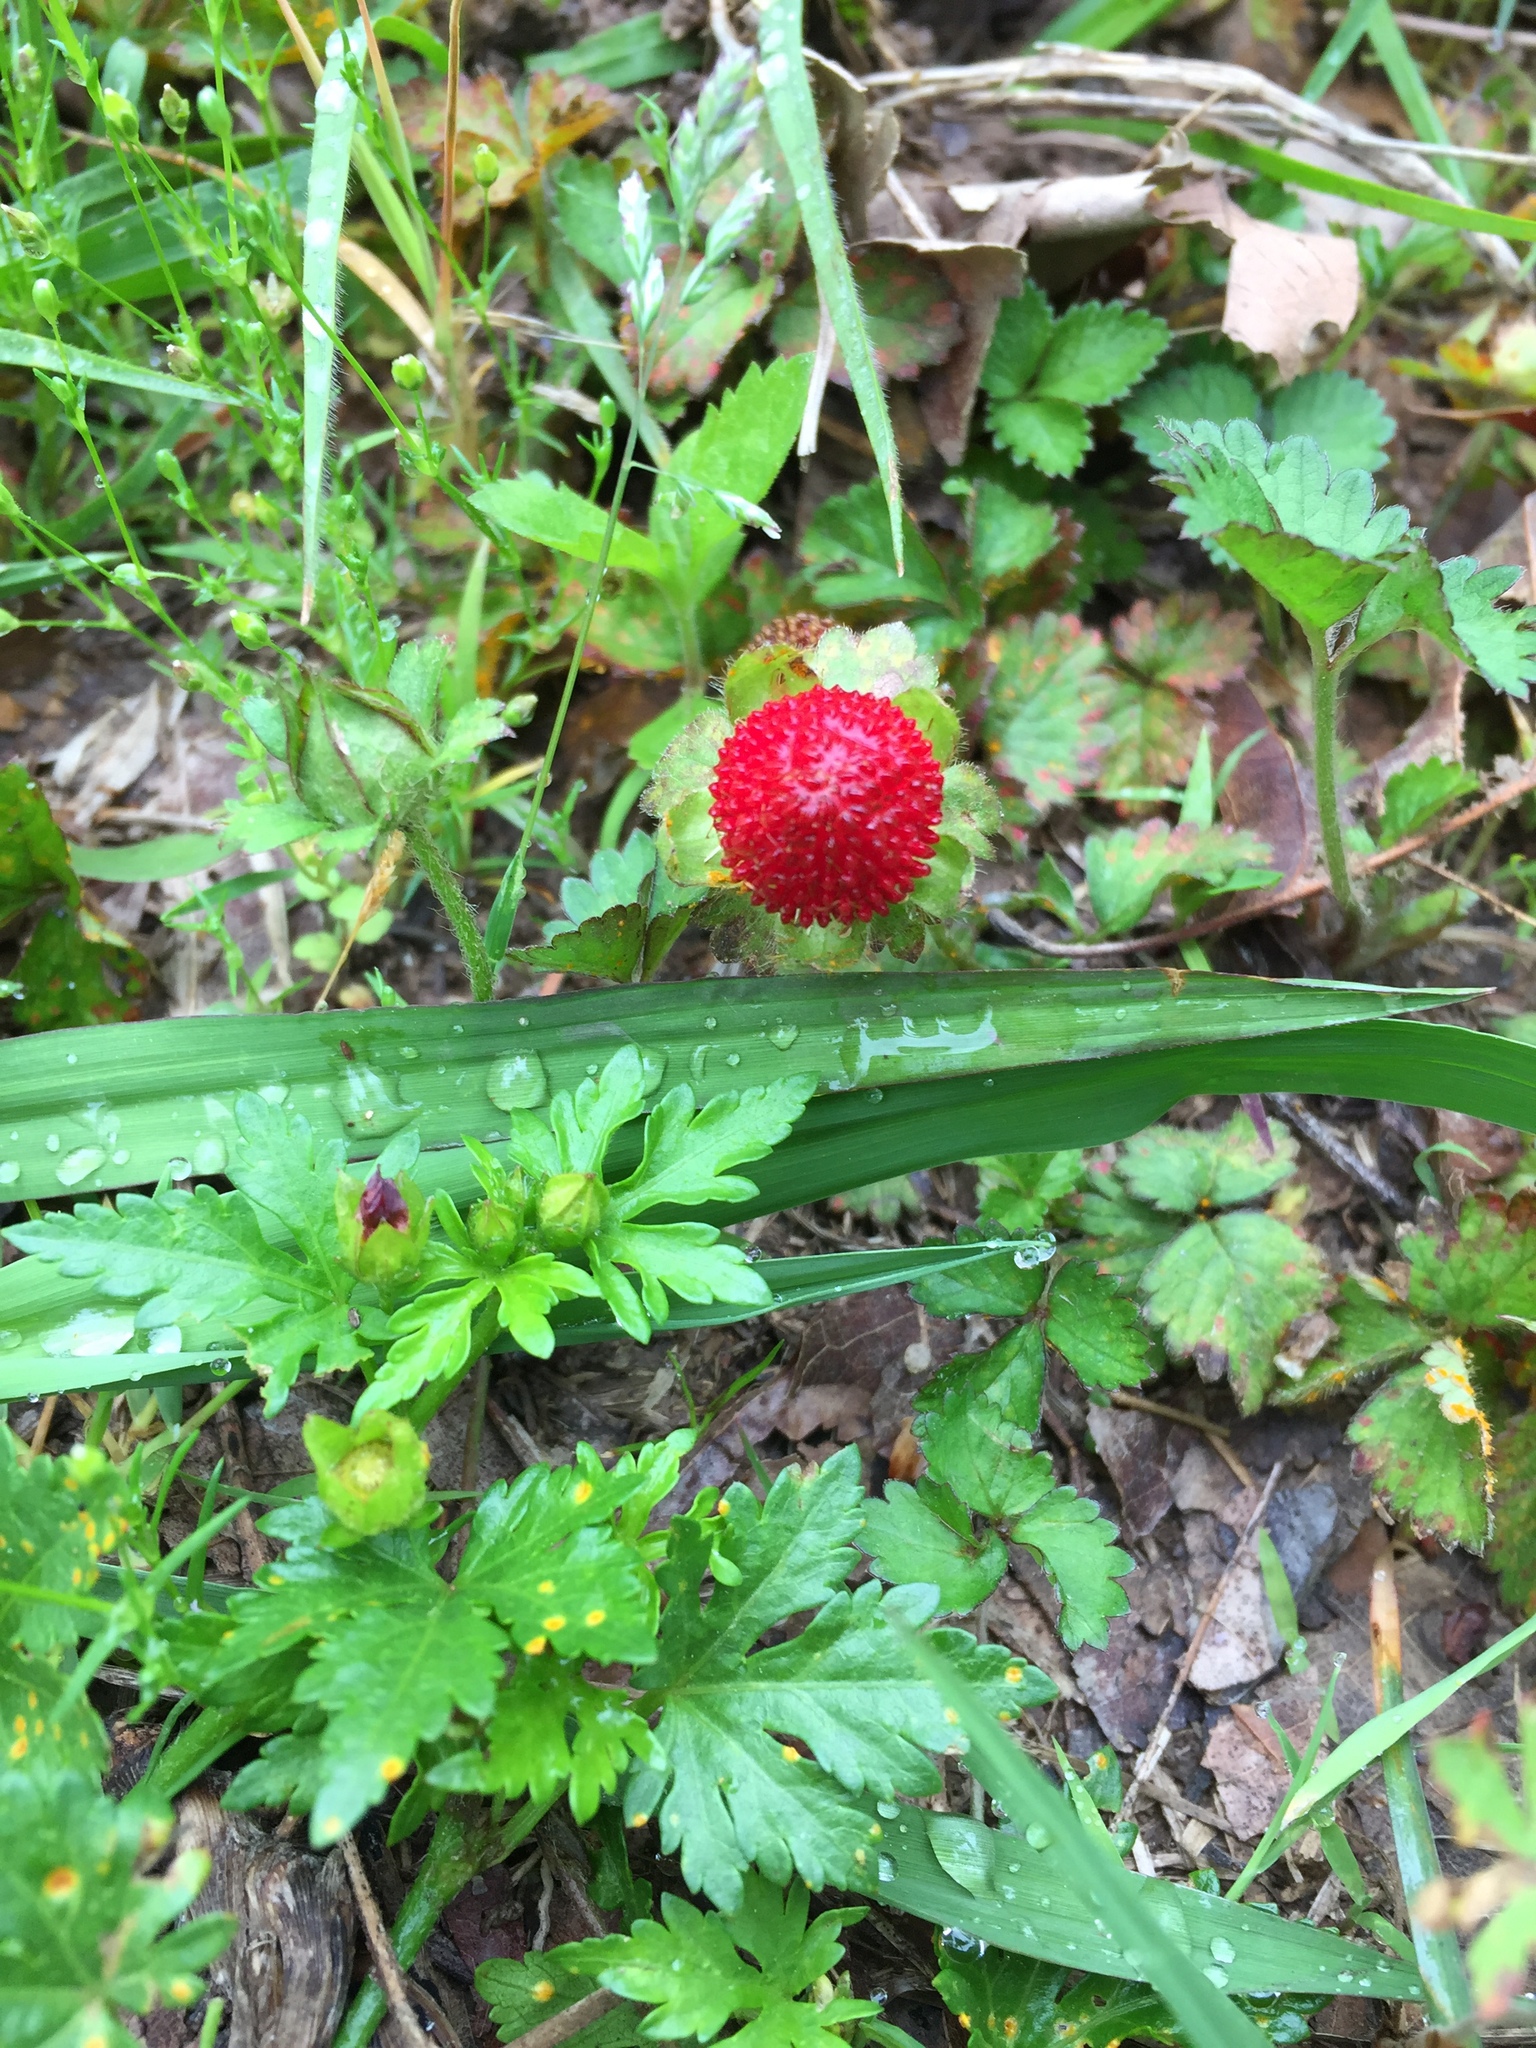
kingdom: Plantae
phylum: Tracheophyta
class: Magnoliopsida
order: Rosales
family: Rosaceae
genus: Potentilla
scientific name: Potentilla indica
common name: Yellow-flowered strawberry
